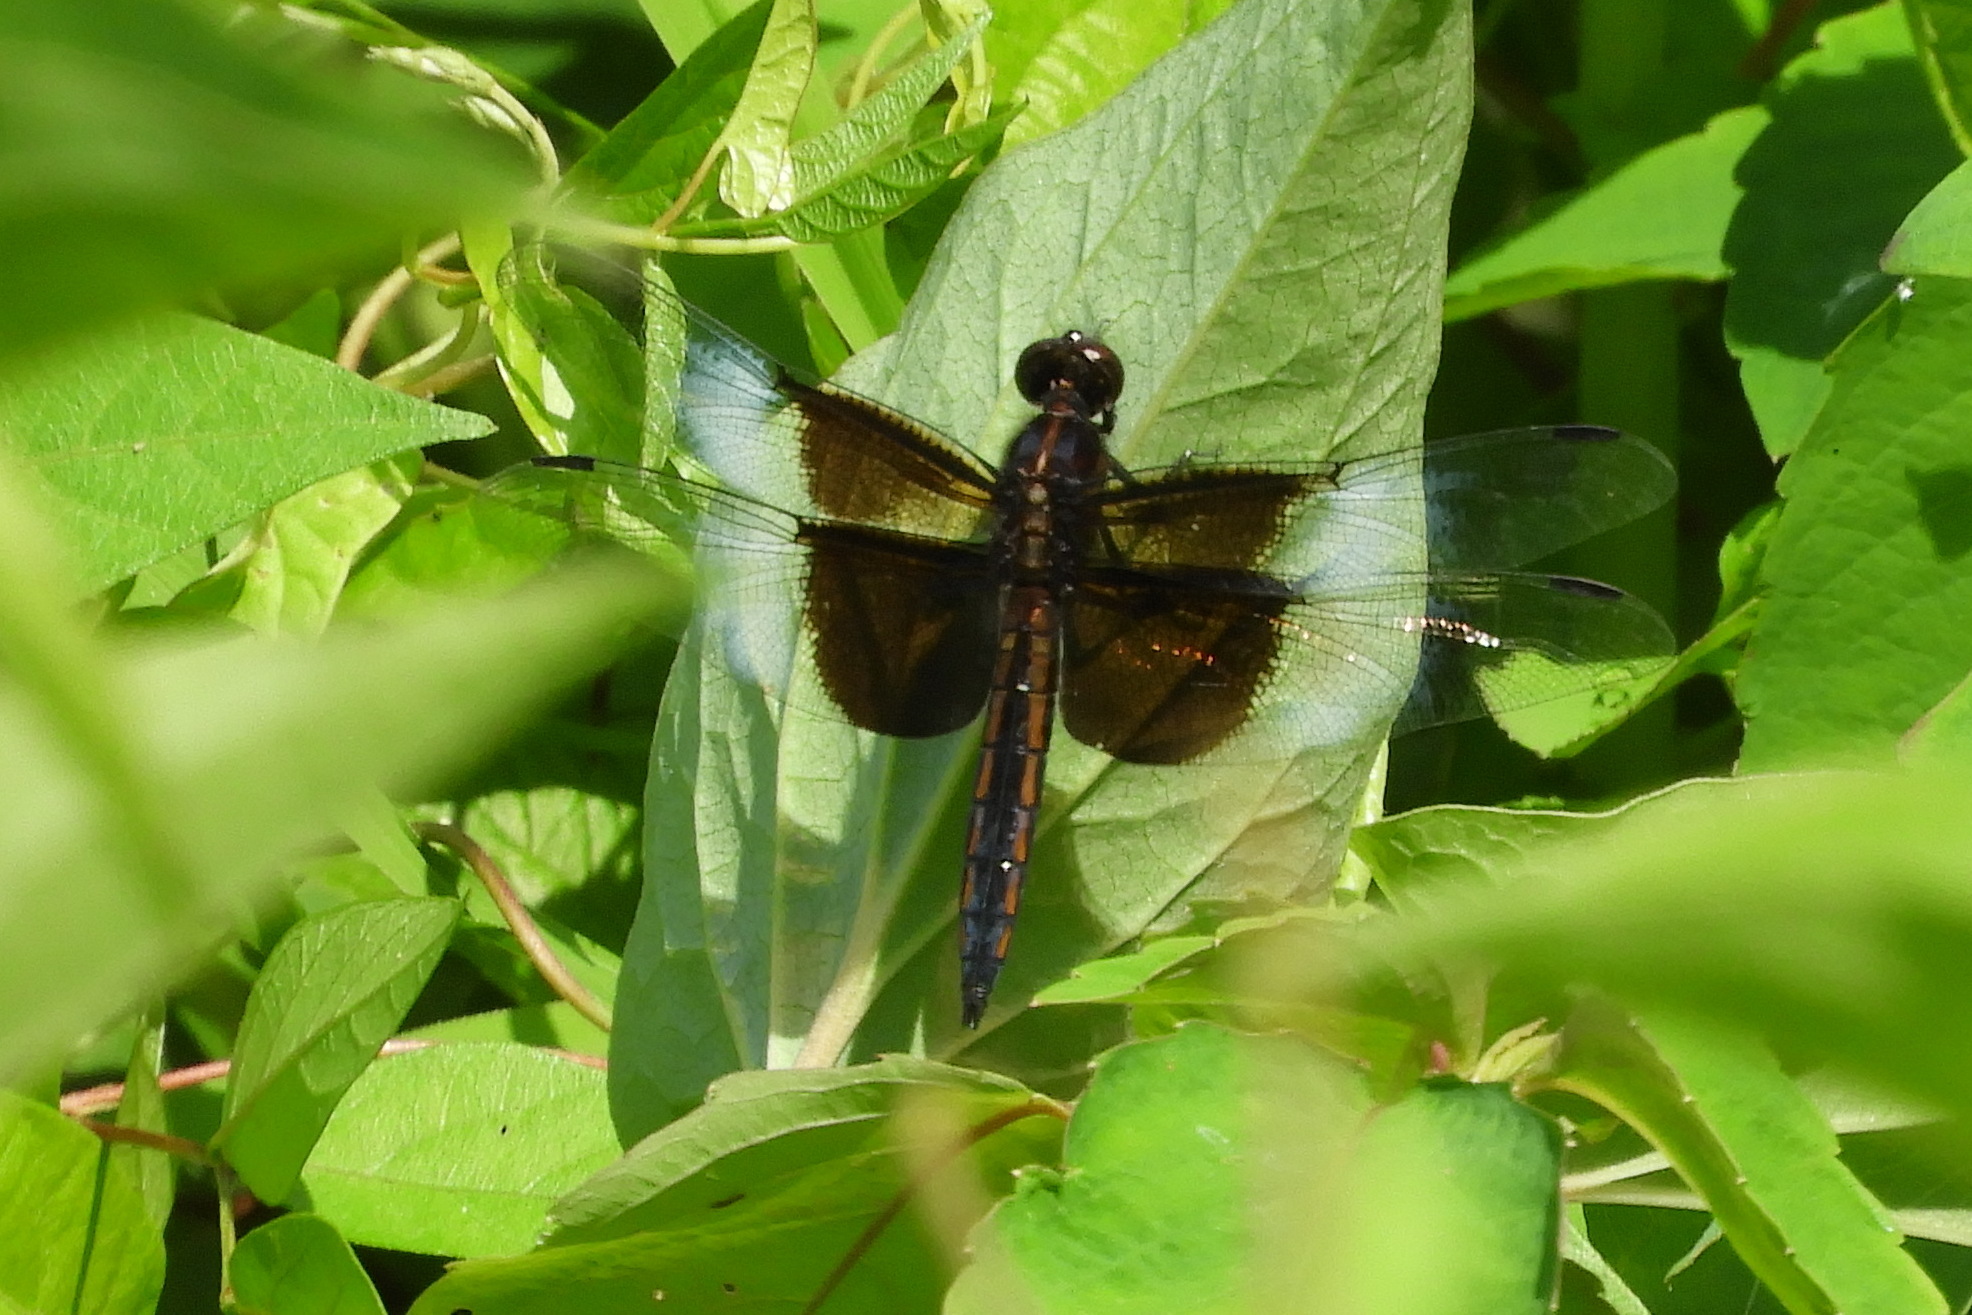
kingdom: Animalia
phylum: Arthropoda
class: Insecta
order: Odonata
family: Libellulidae
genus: Libellula
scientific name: Libellula luctuosa
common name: Widow skimmer
